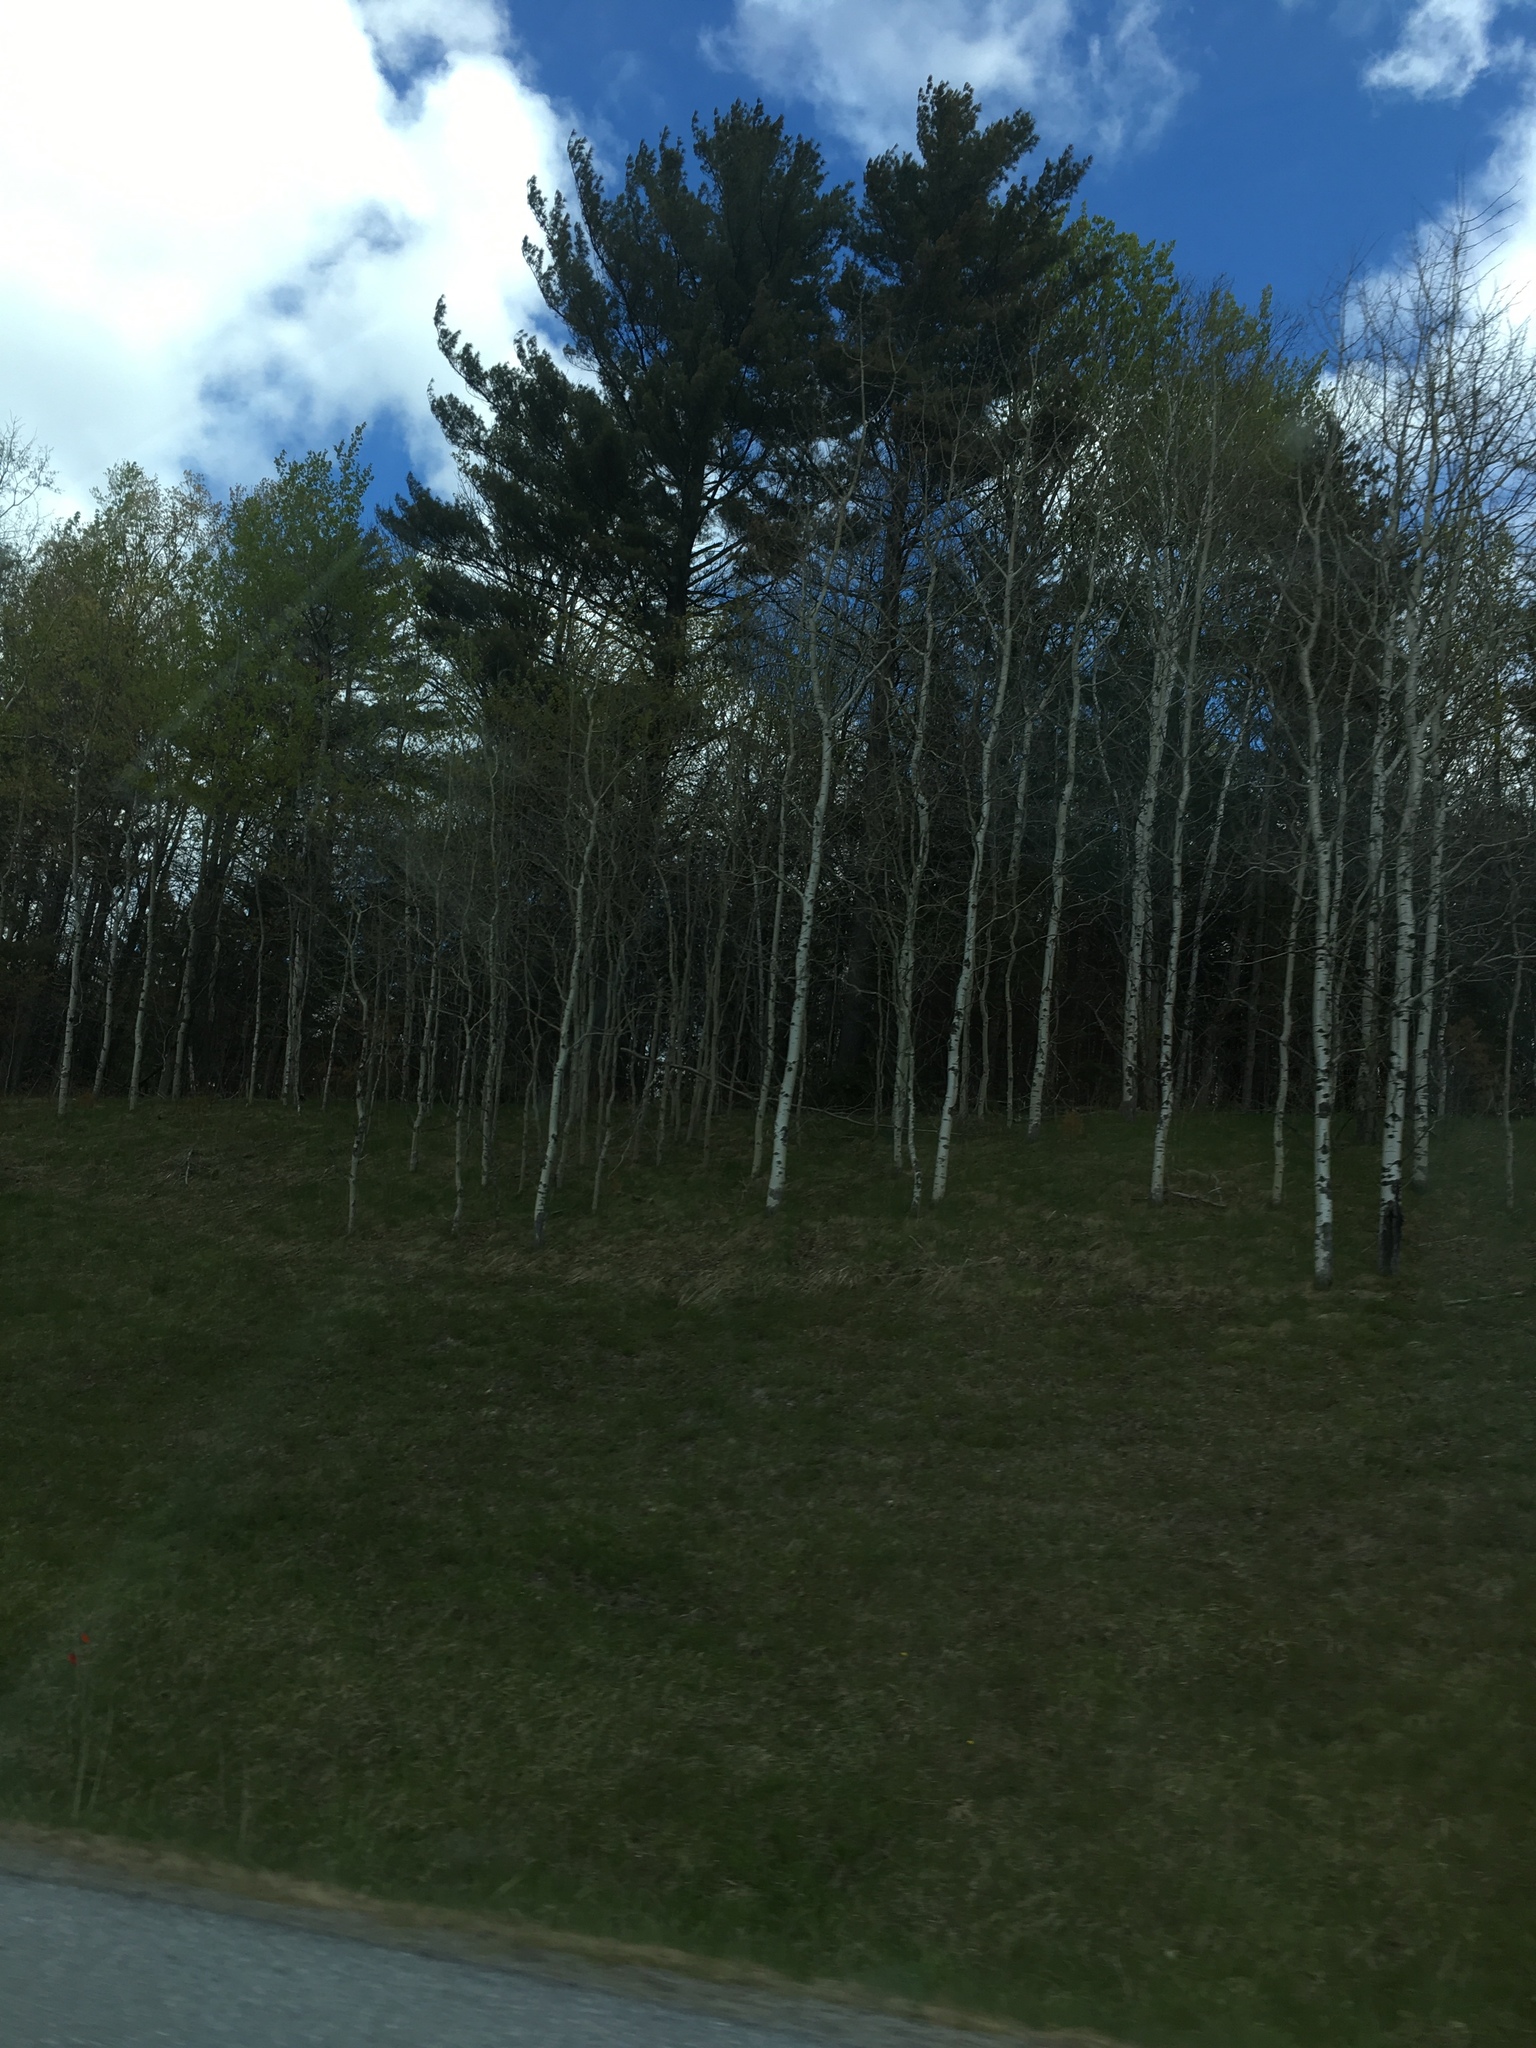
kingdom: Plantae
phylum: Tracheophyta
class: Magnoliopsida
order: Malpighiales
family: Salicaceae
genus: Populus
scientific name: Populus tremuloides
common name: Quaking aspen
